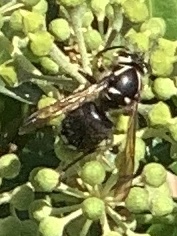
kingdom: Animalia
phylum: Arthropoda
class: Insecta
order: Hymenoptera
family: Vespidae
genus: Dolichovespula
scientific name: Dolichovespula maculata
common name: Bald-faced hornet
